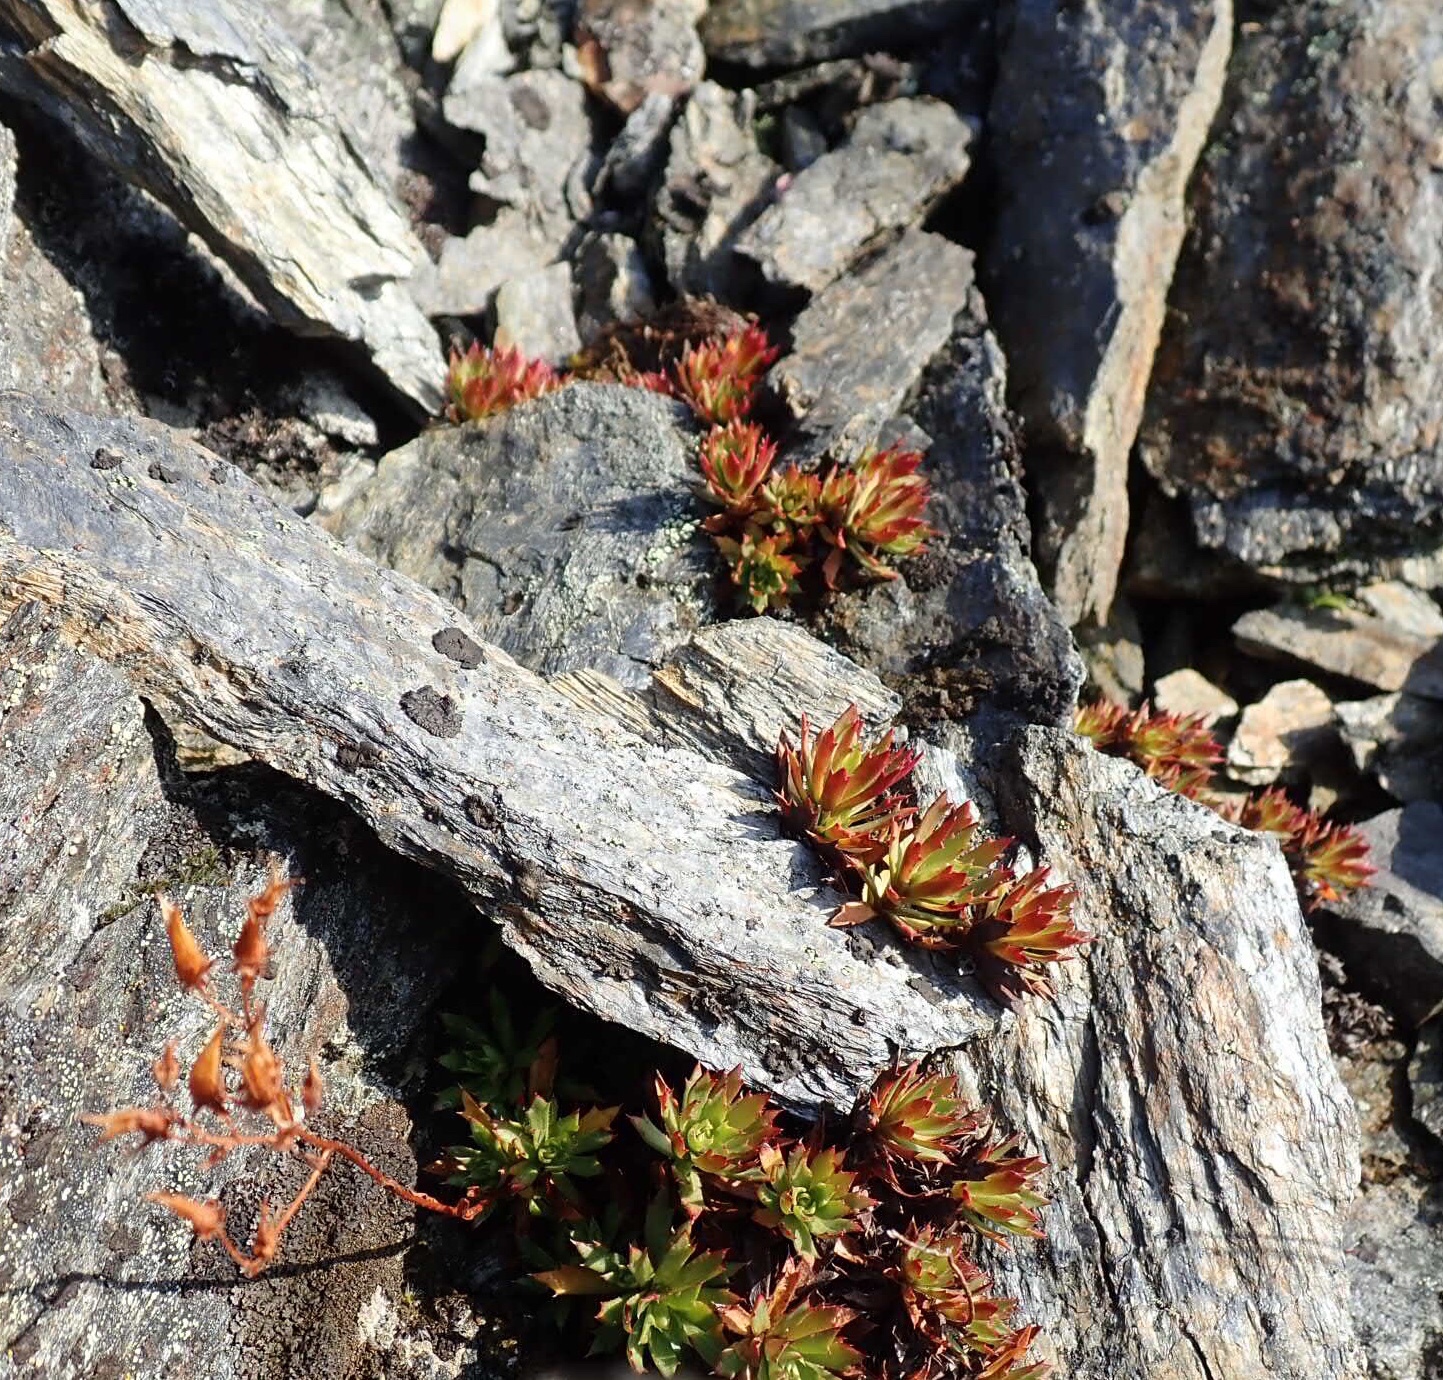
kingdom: Plantae
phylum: Tracheophyta
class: Magnoliopsida
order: Saxifragales
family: Saxifragaceae
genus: Saxifraga
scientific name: Saxifraga tricuspidata
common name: Prickly saxifrage
